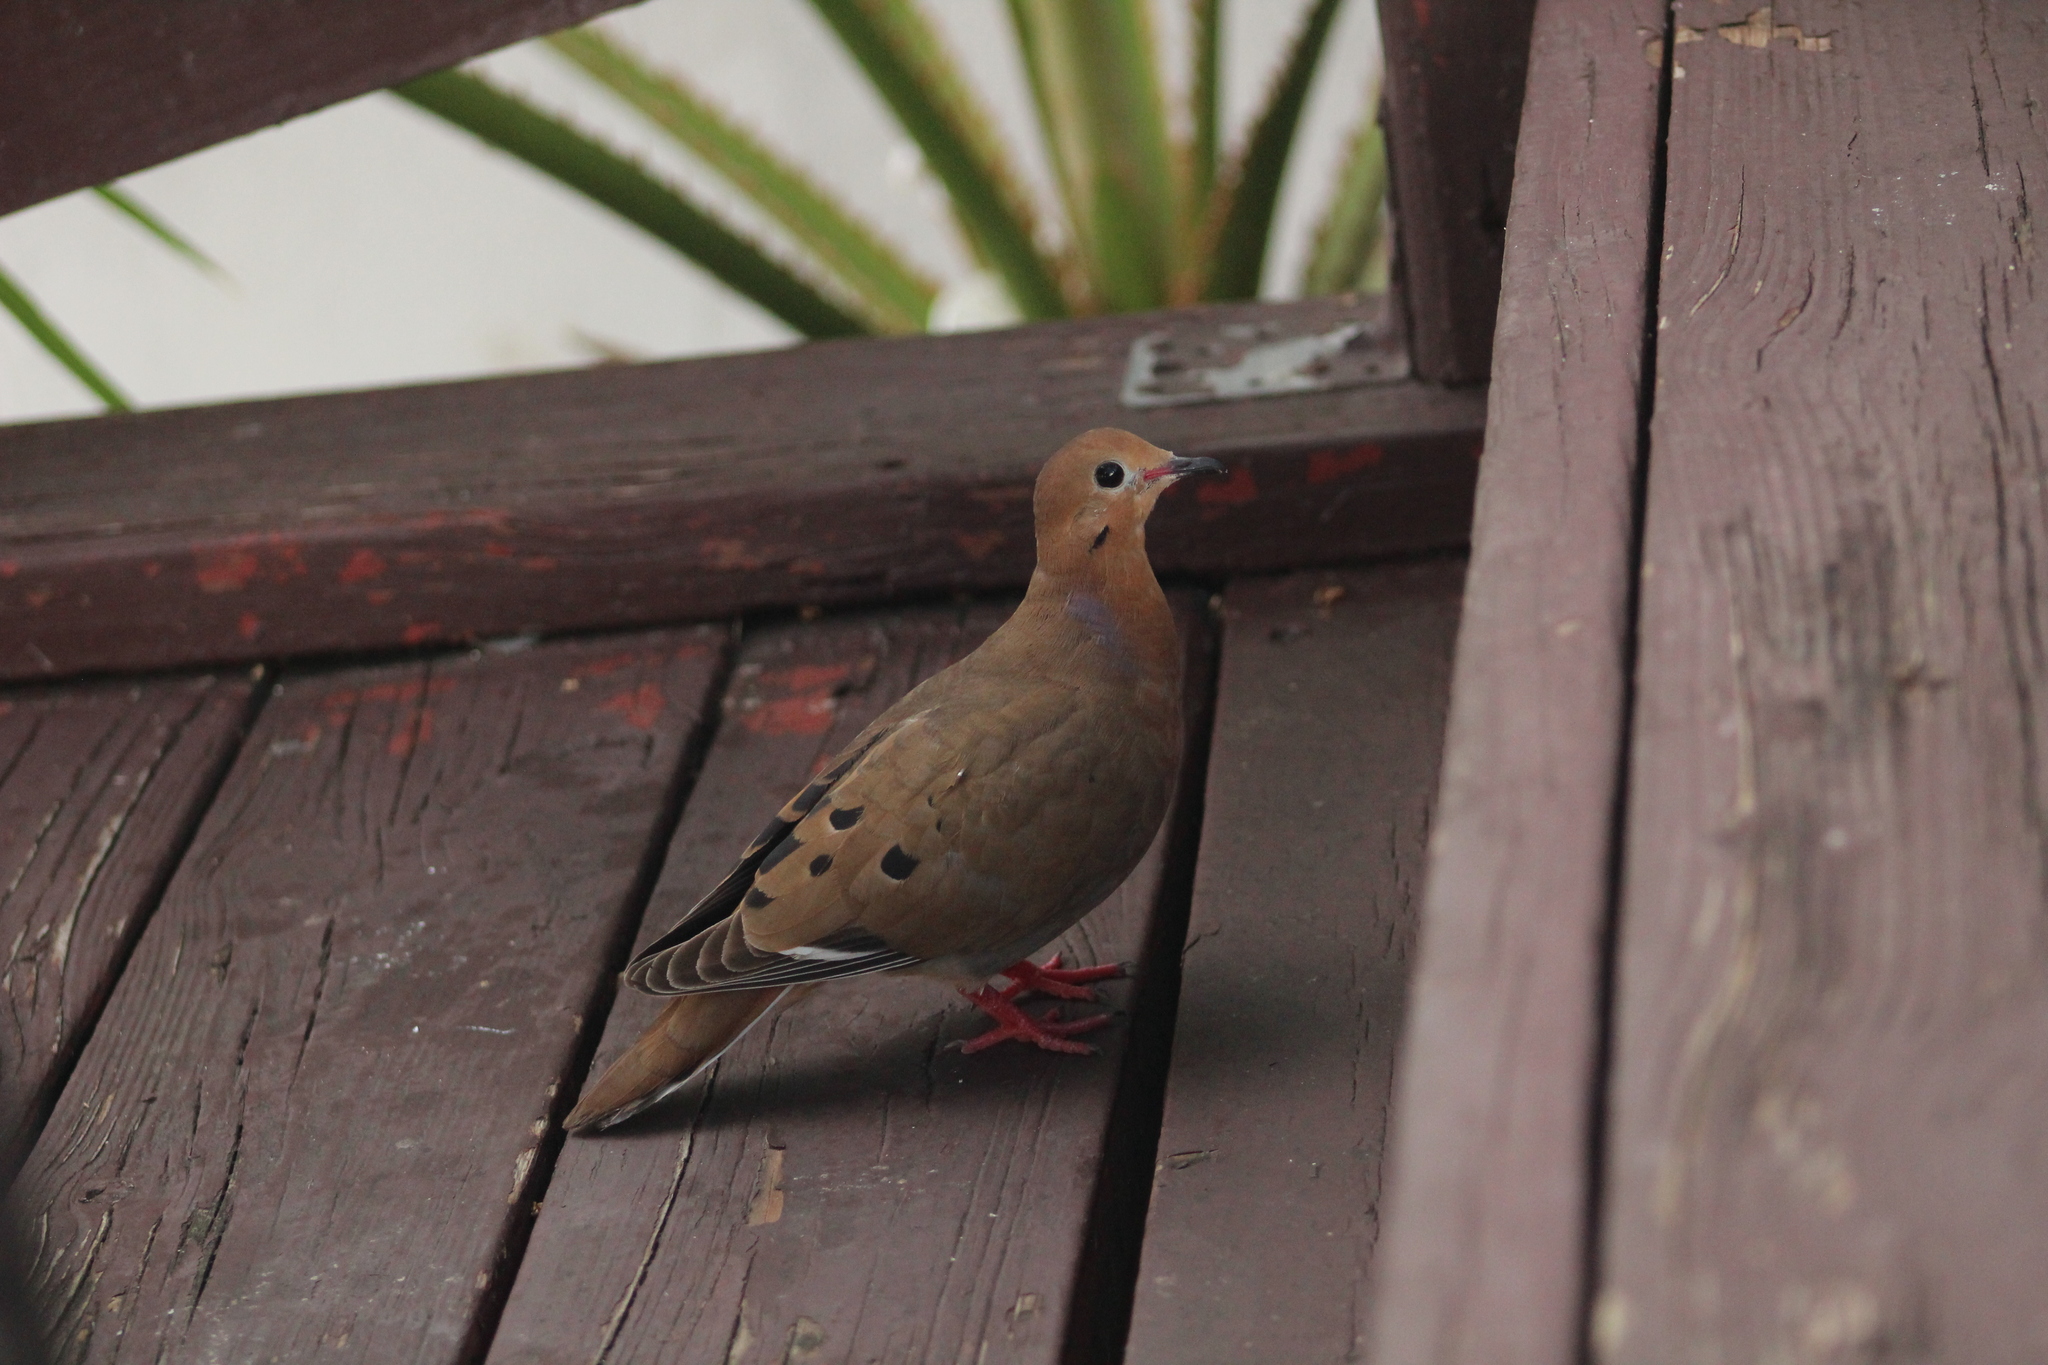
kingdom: Animalia
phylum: Chordata
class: Aves
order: Columbiformes
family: Columbidae
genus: Zenaida
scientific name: Zenaida aurita
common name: Zenaida dove
